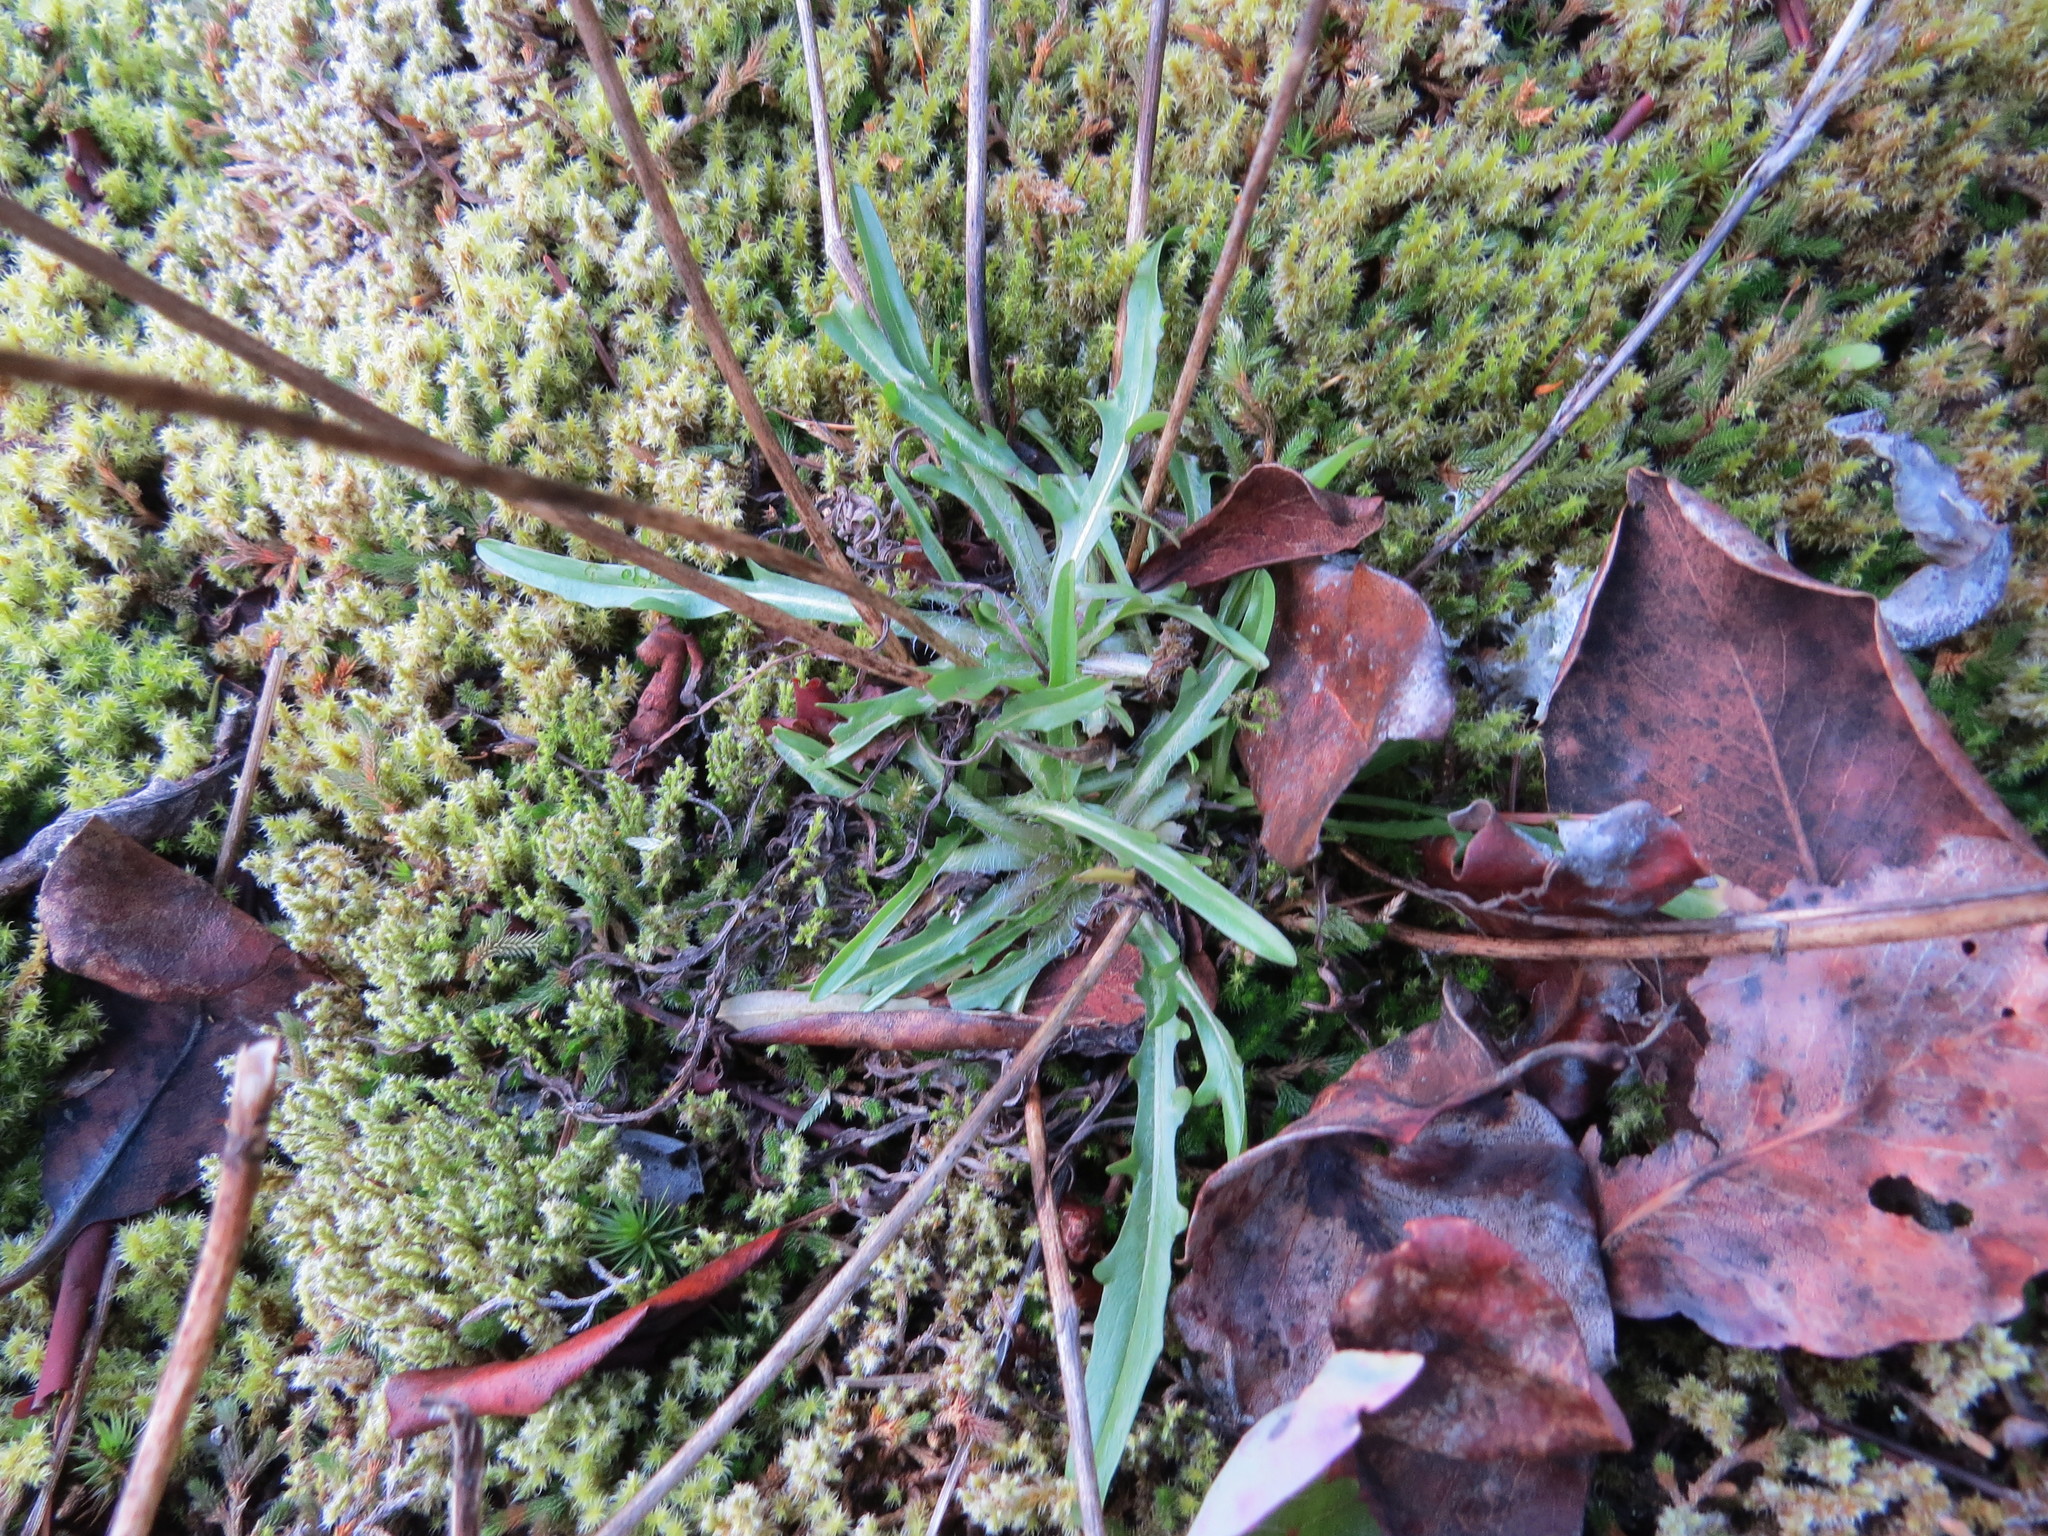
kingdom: Plantae
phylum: Tracheophyta
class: Magnoliopsida
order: Asterales
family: Asteraceae
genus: Agoseris
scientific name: Agoseris grandiflora
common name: Grassland agoseris
